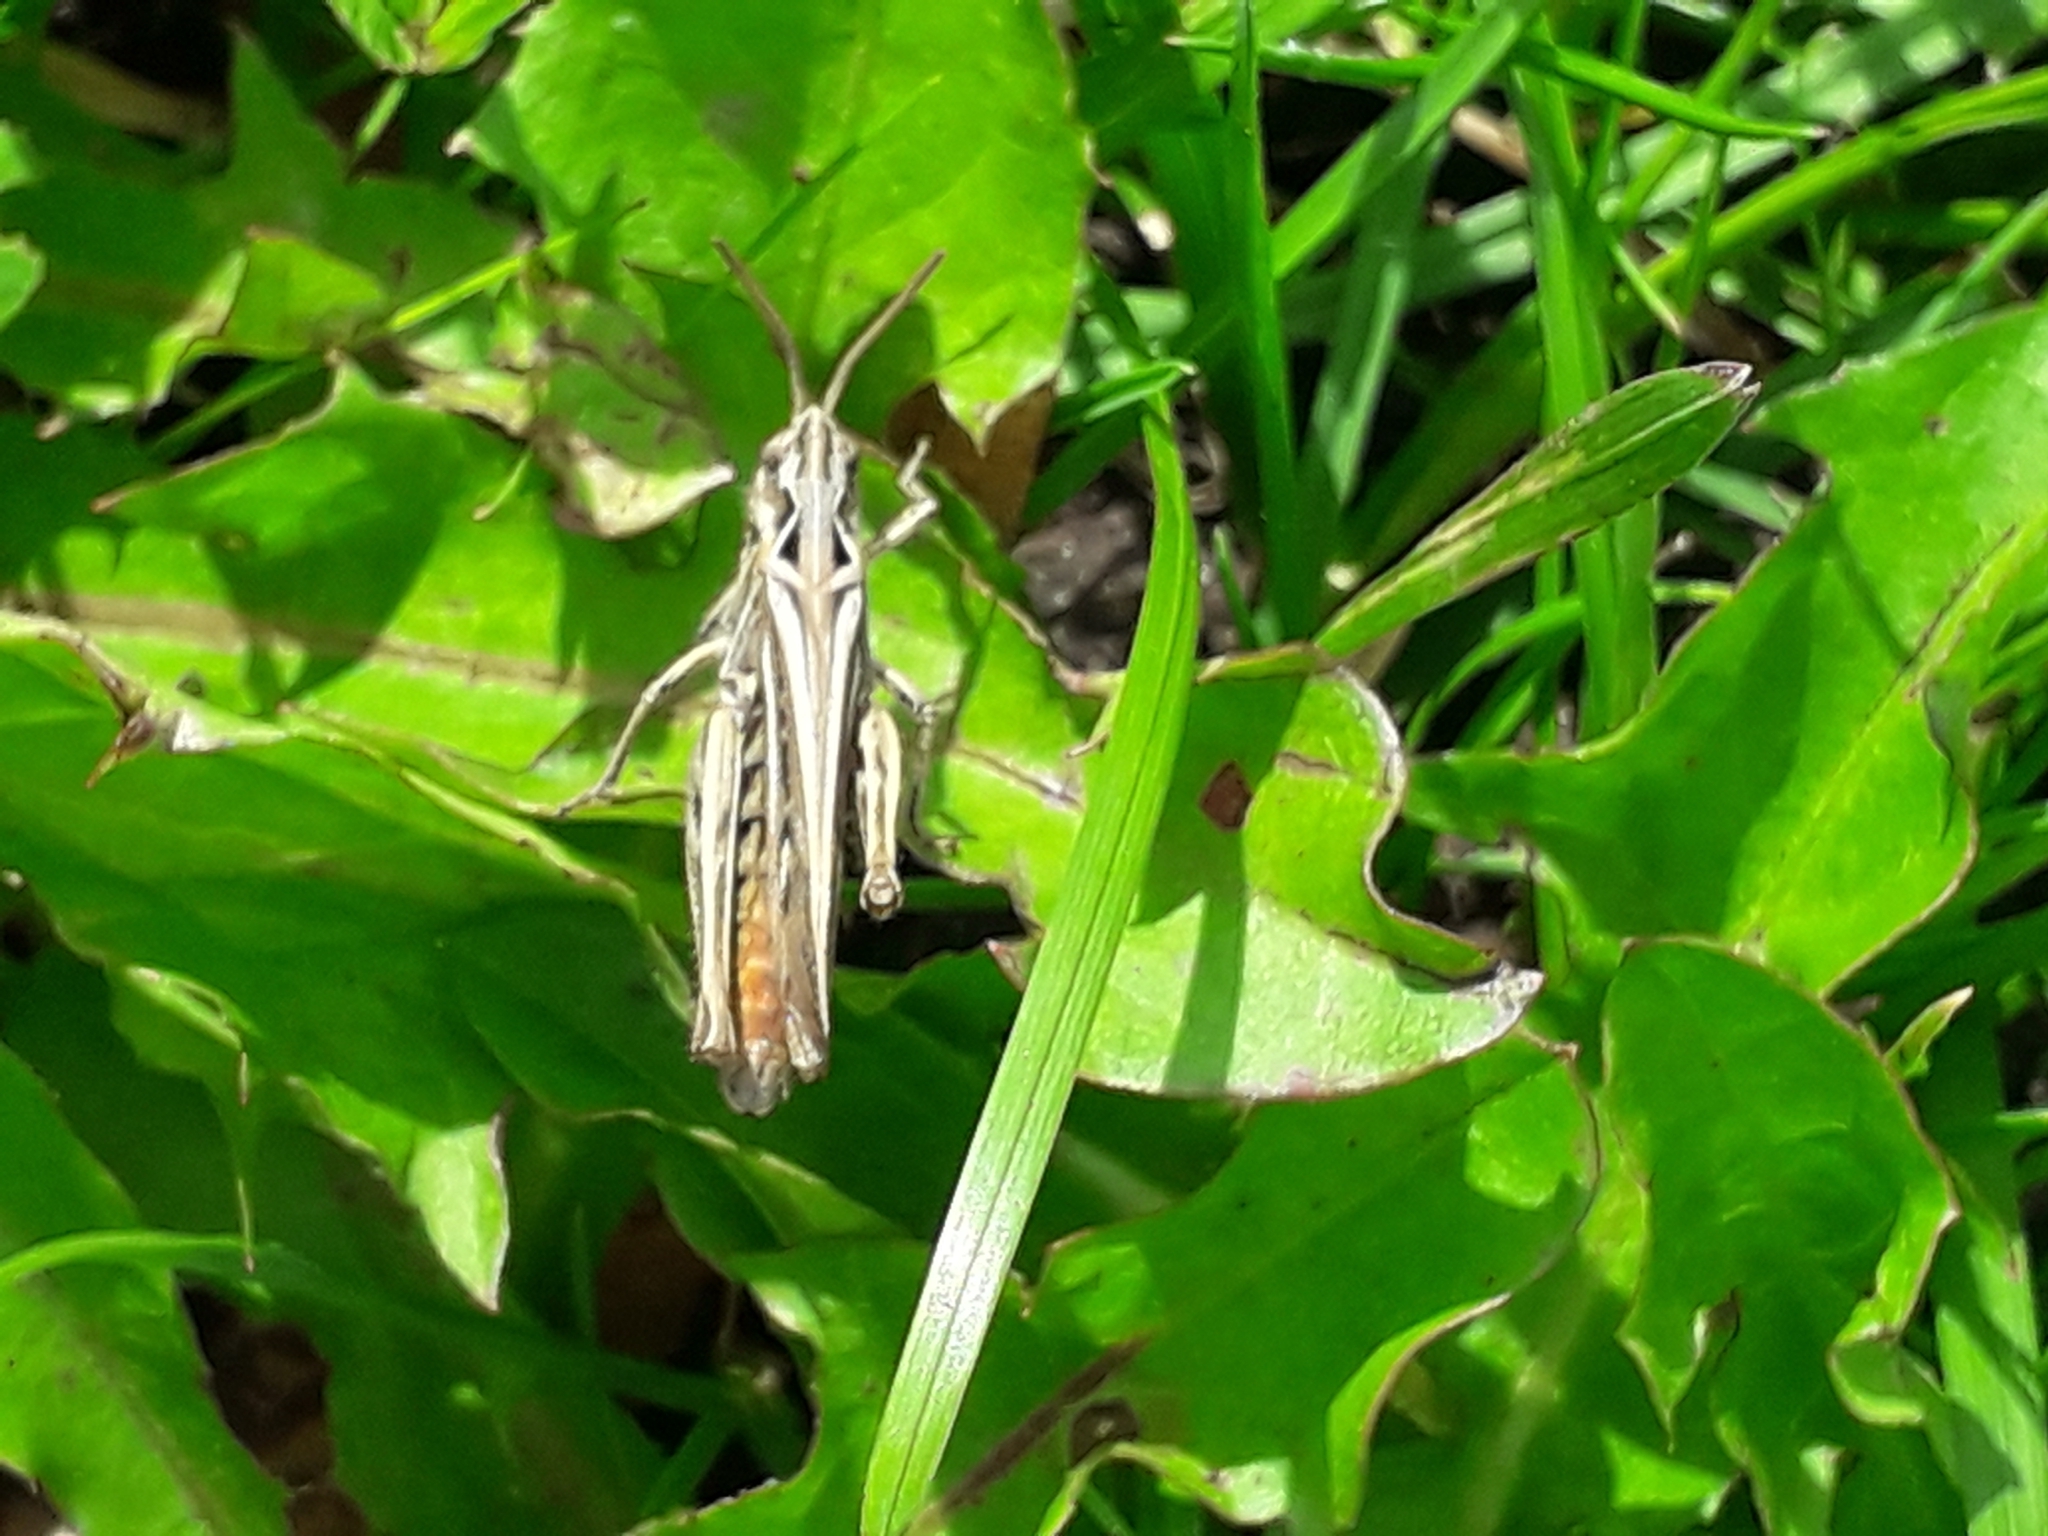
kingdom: Animalia
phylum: Arthropoda
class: Insecta
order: Orthoptera
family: Acrididae
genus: Chorthippus
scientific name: Chorthippus brunneus
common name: Field grasshopper
